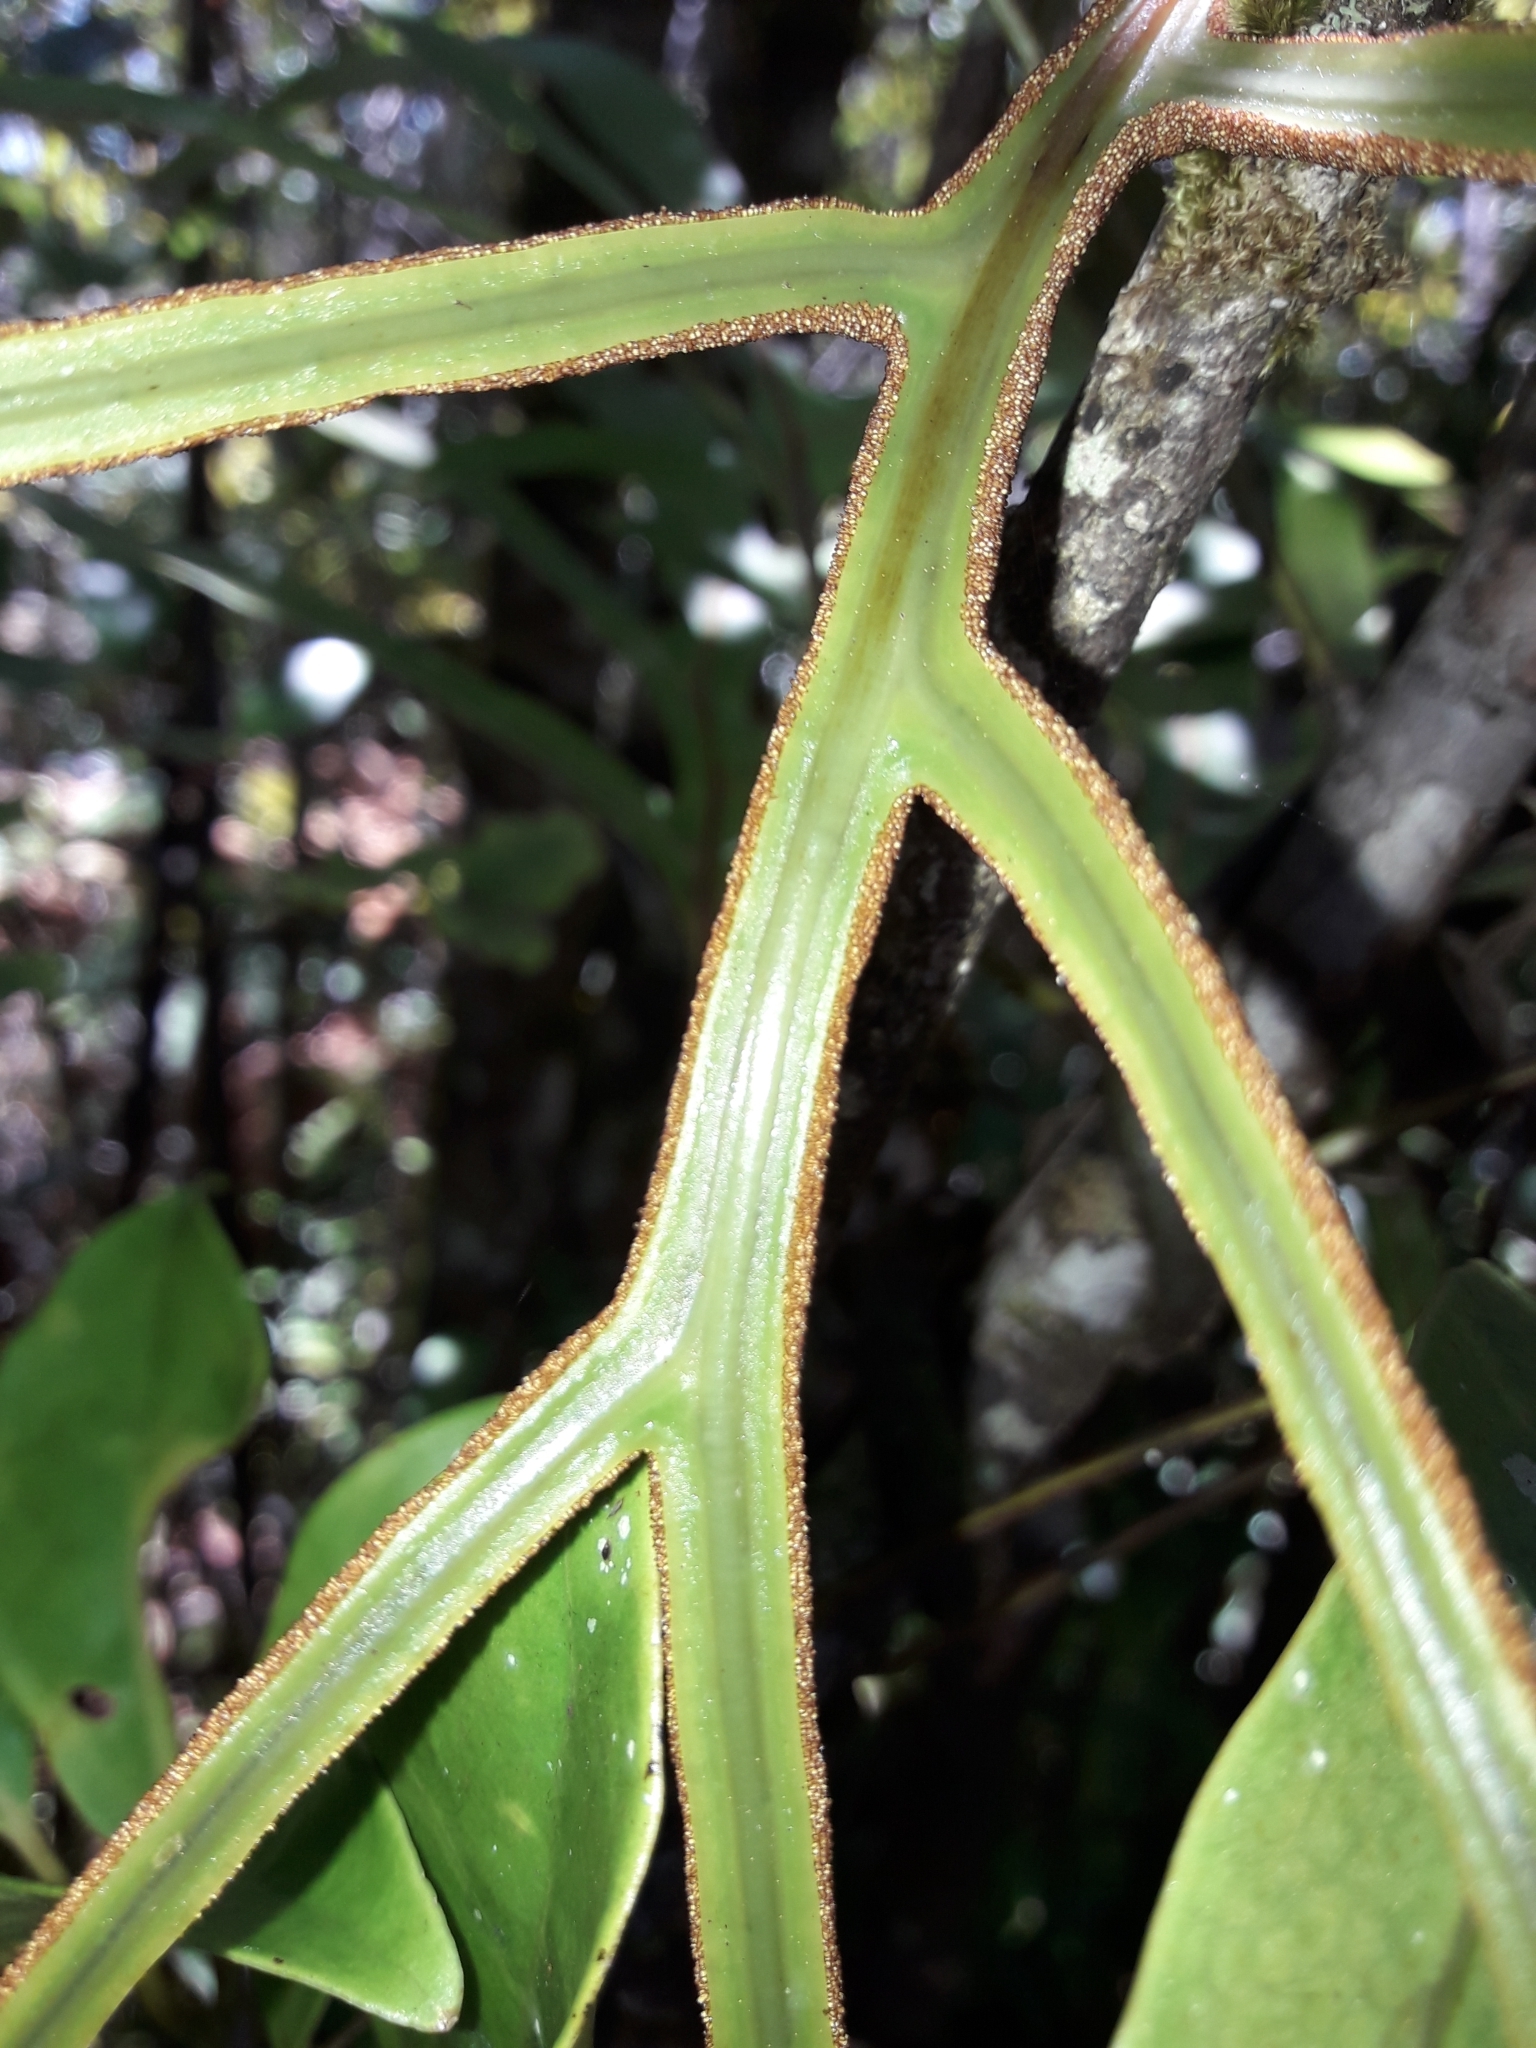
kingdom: Plantae
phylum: Tracheophyta
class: Polypodiopsida
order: Polypodiales
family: Polypodiaceae
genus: Lecanopteris
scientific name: Lecanopteris varians
